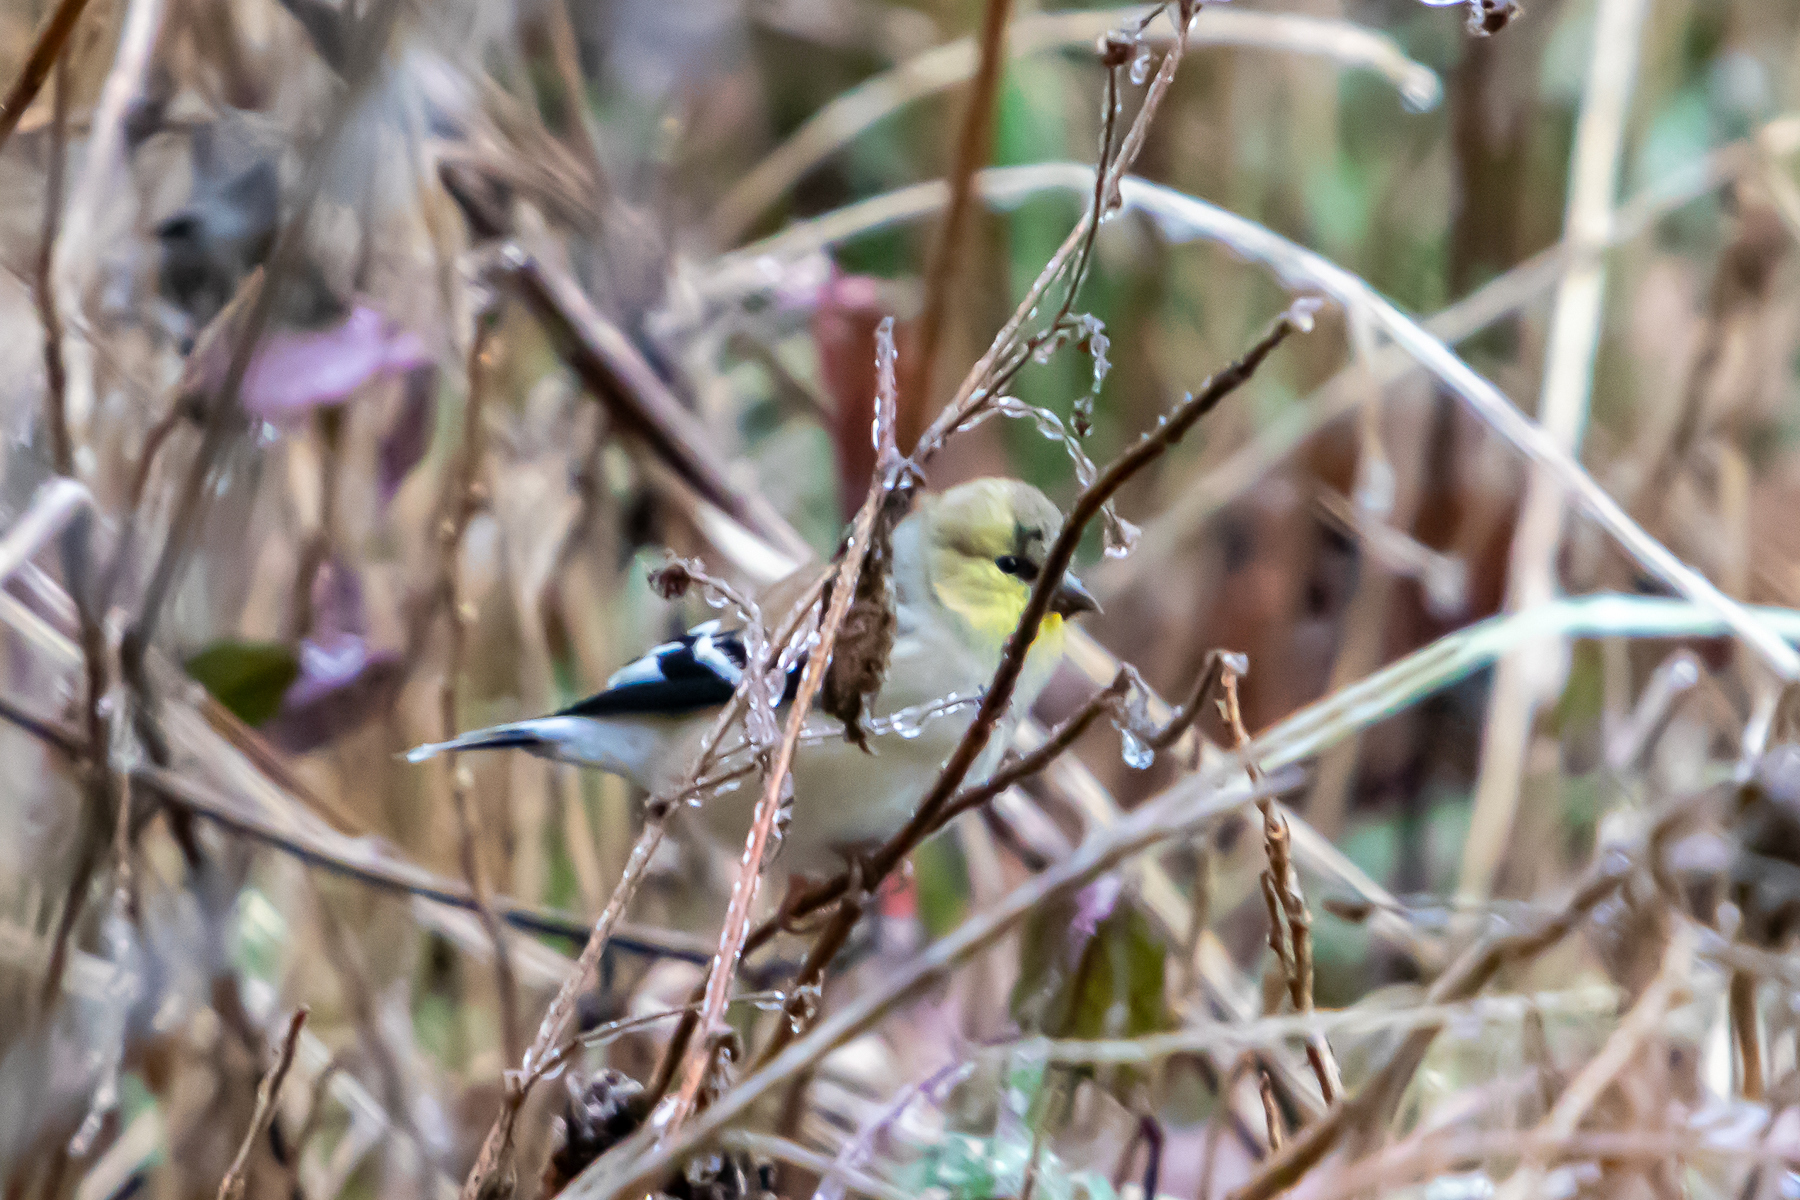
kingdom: Animalia
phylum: Chordata
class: Aves
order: Passeriformes
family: Fringillidae
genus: Spinus
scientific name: Spinus tristis
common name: American goldfinch
